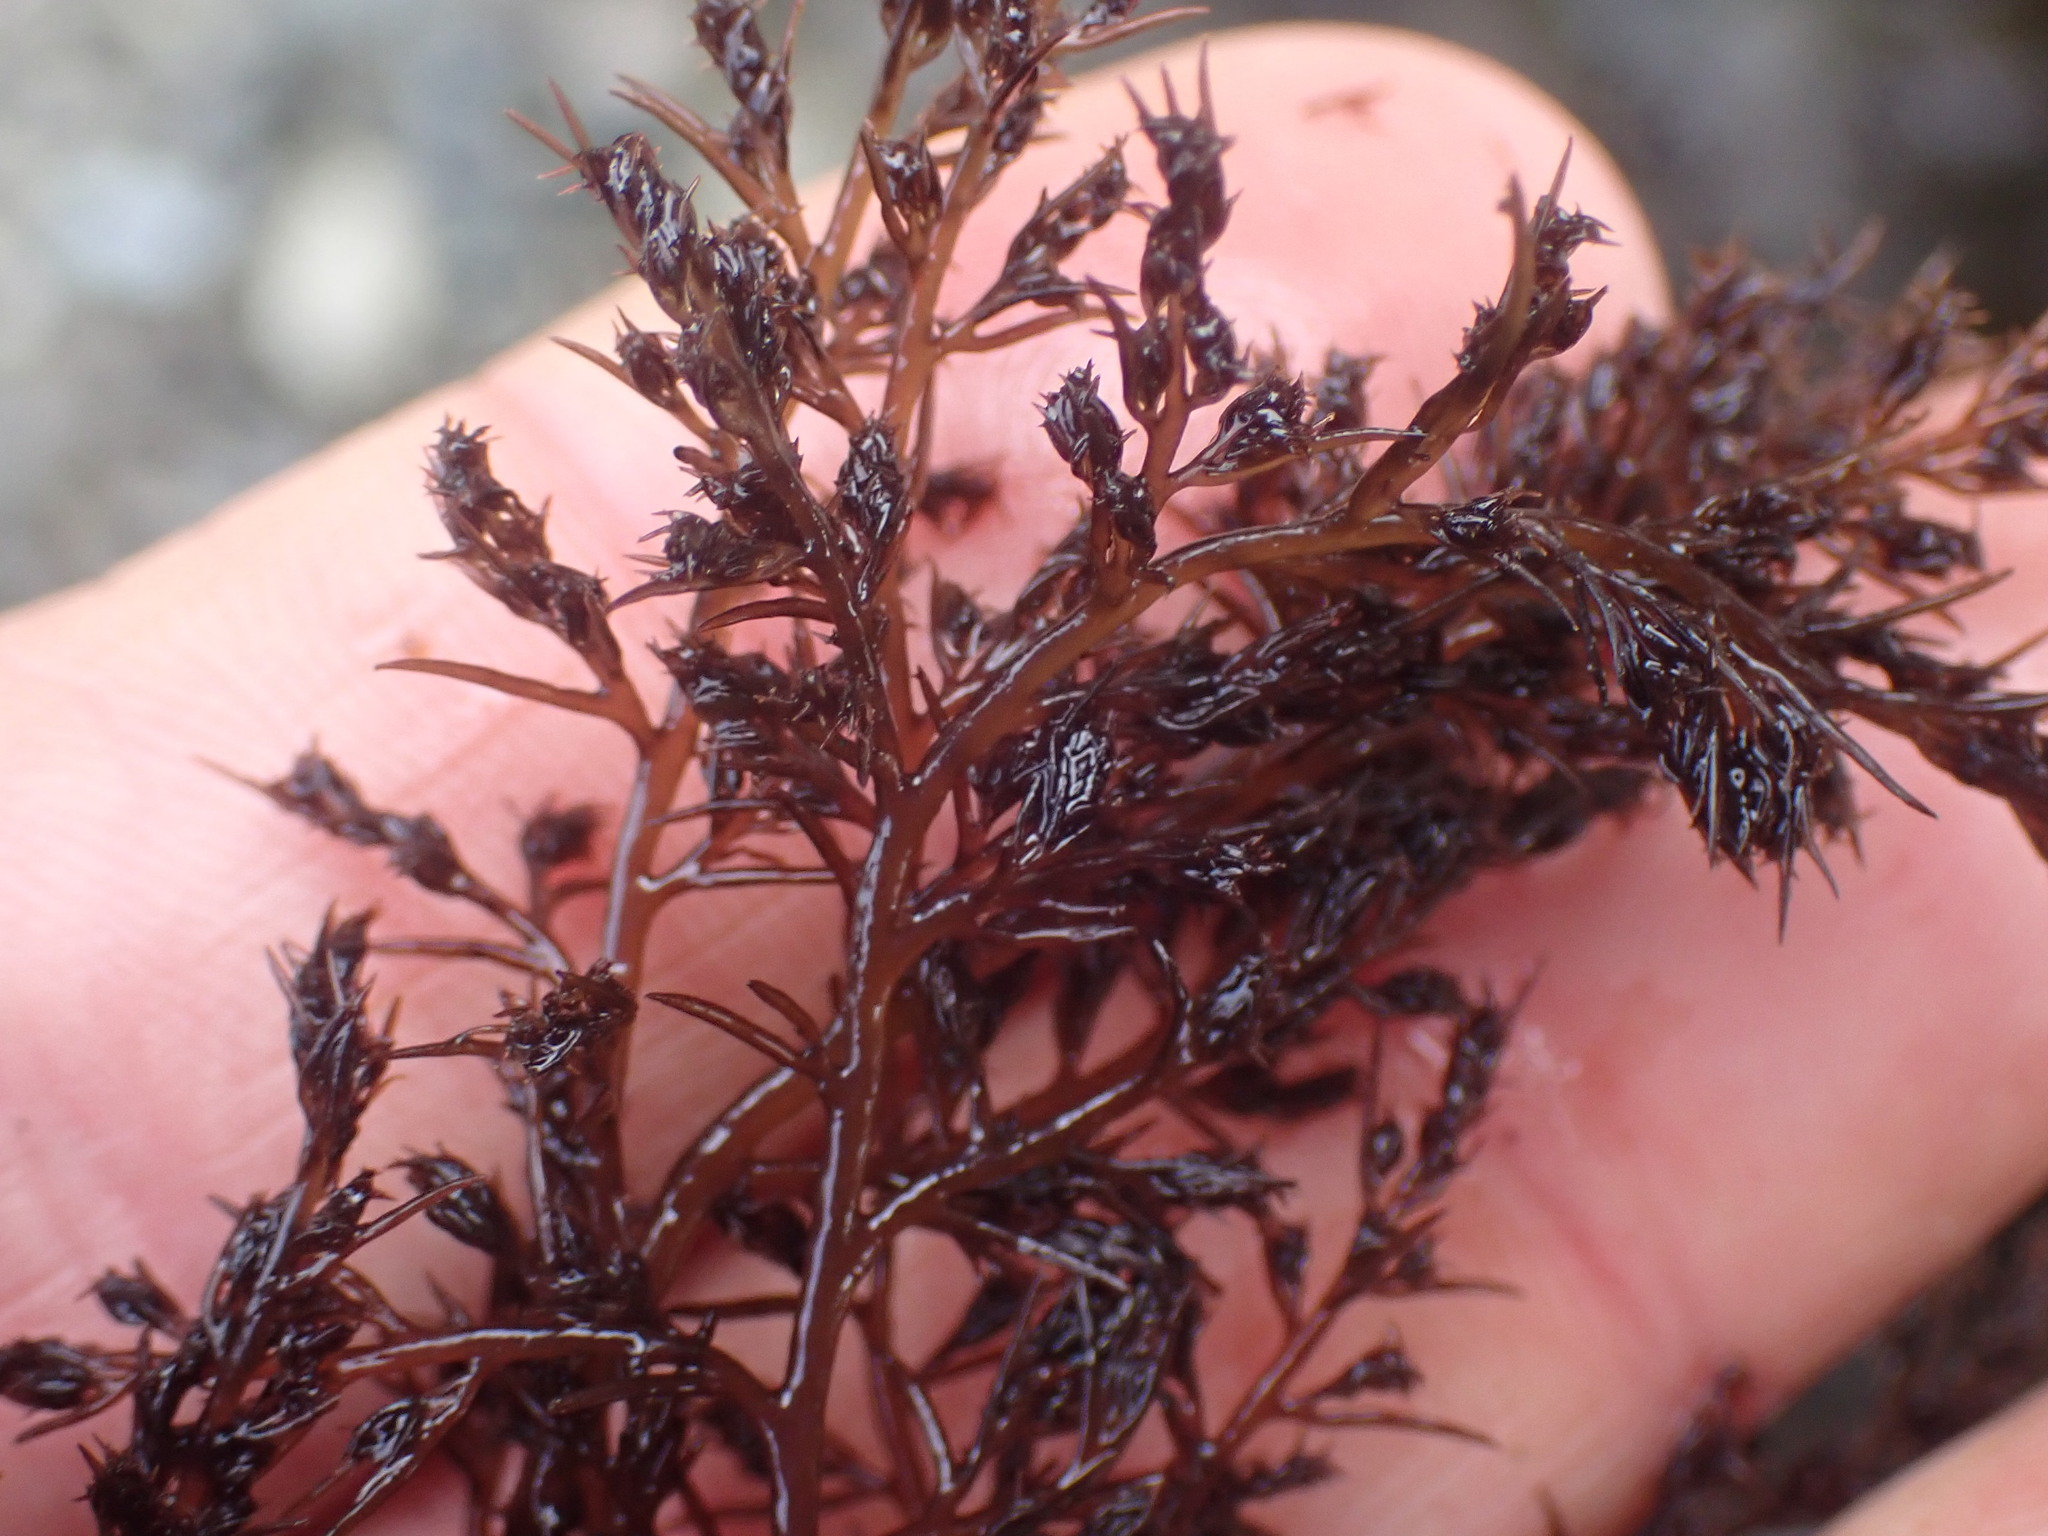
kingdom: Plantae
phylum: Rhodophyta
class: Florideophyceae
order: Ceramiales
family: Rhodomelaceae
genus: Odonthalia
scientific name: Odonthalia floccosa
